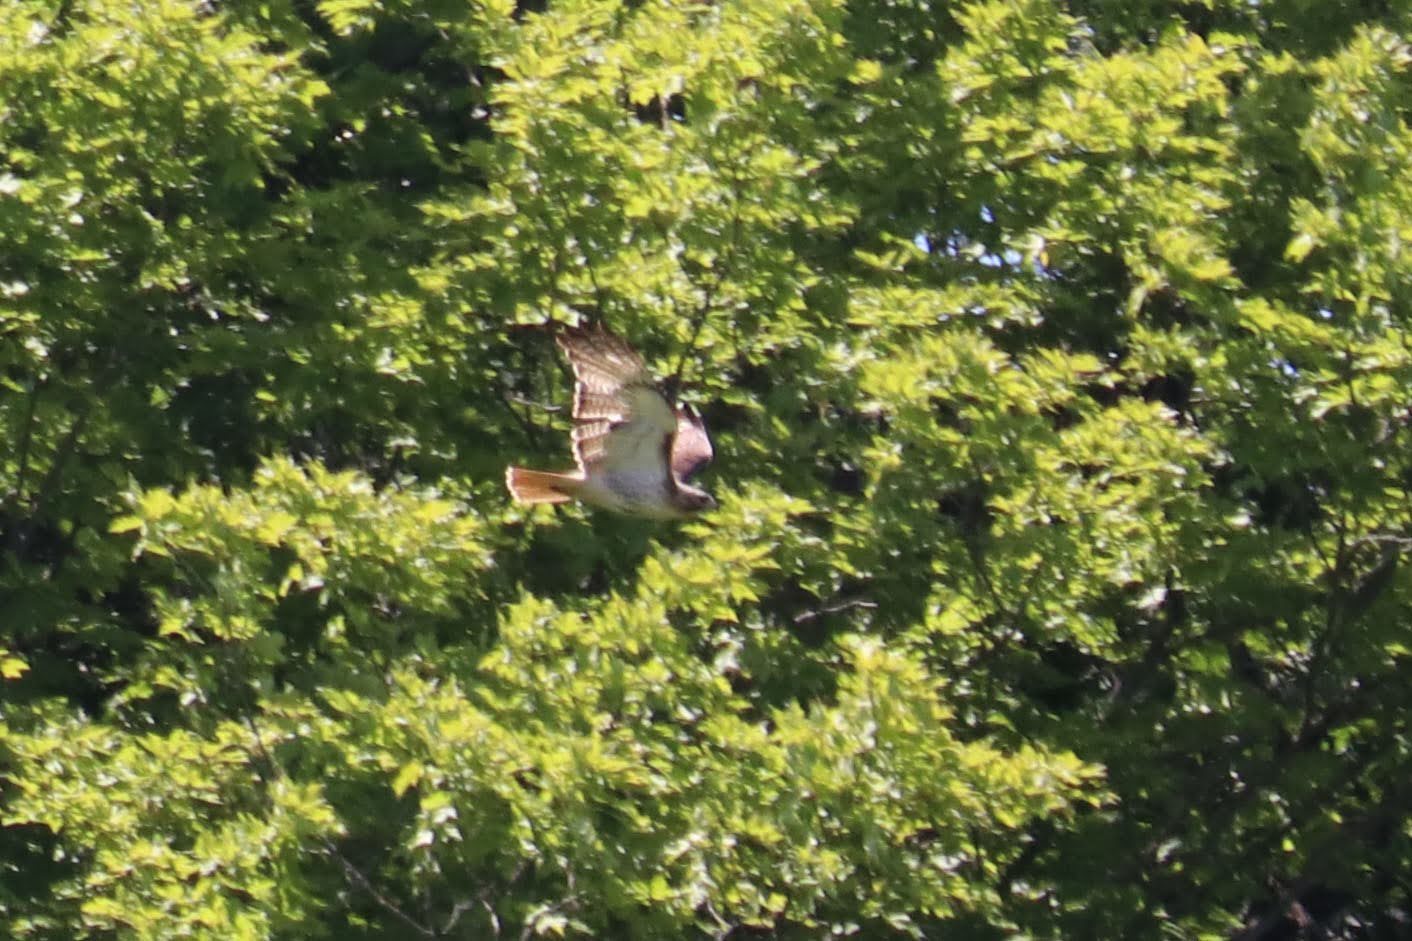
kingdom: Animalia
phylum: Chordata
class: Aves
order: Accipitriformes
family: Accipitridae
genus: Buteo
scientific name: Buteo jamaicensis
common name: Red-tailed hawk
